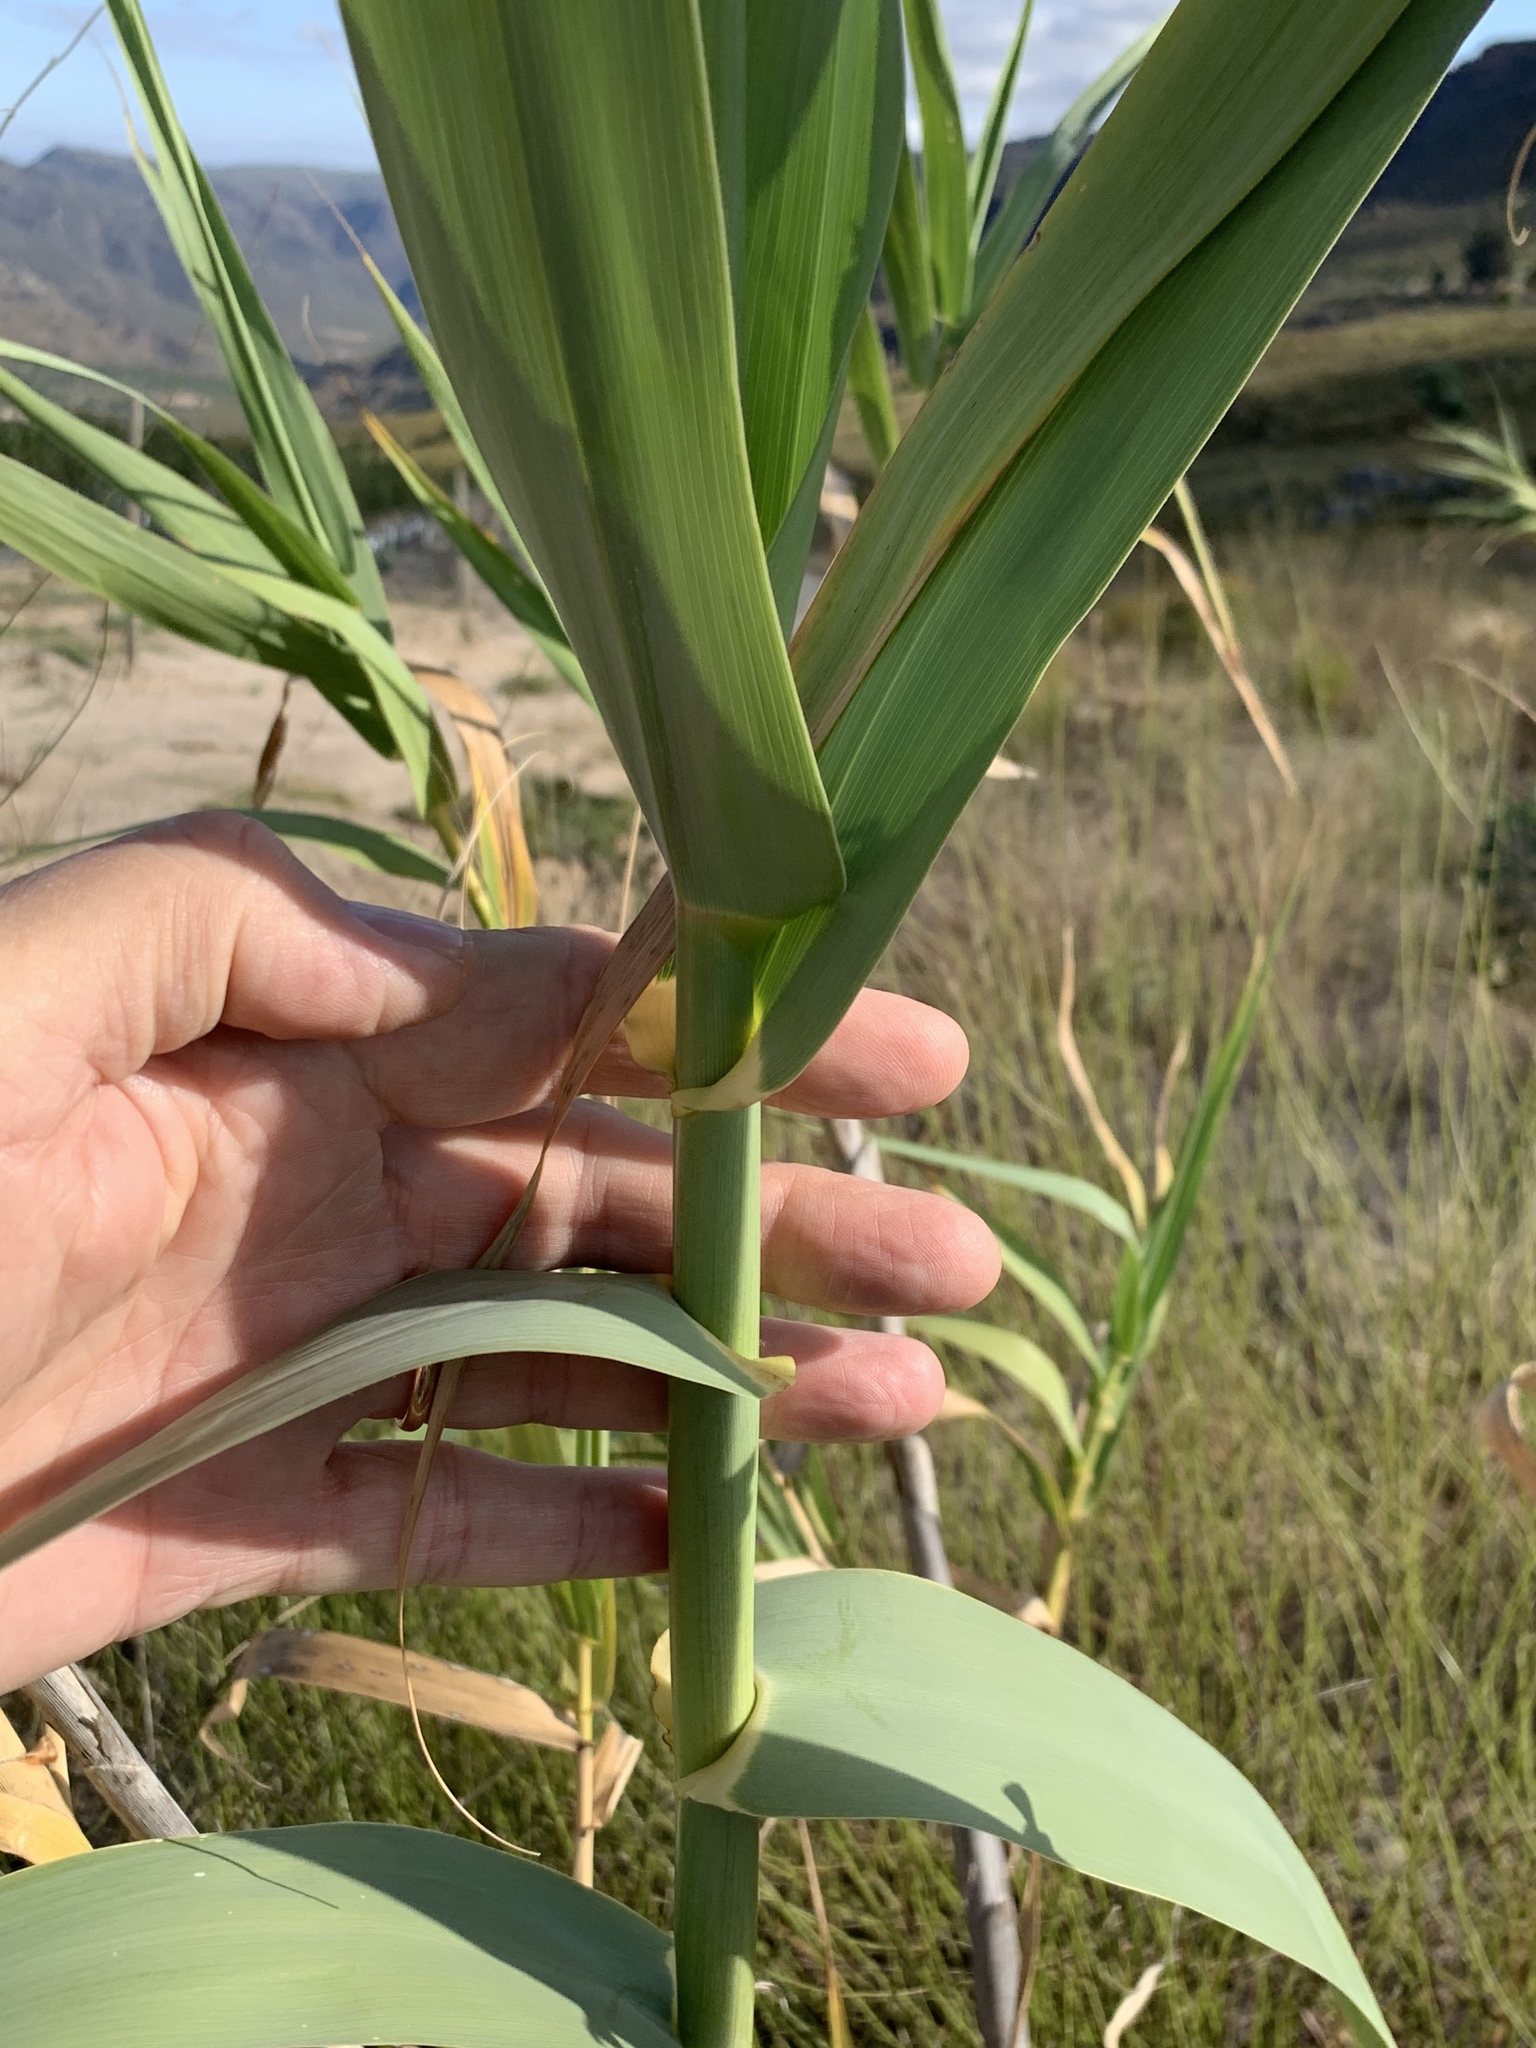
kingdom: Plantae
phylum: Tracheophyta
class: Liliopsida
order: Poales
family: Poaceae
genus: Arundo
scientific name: Arundo donax
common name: Giant reed
